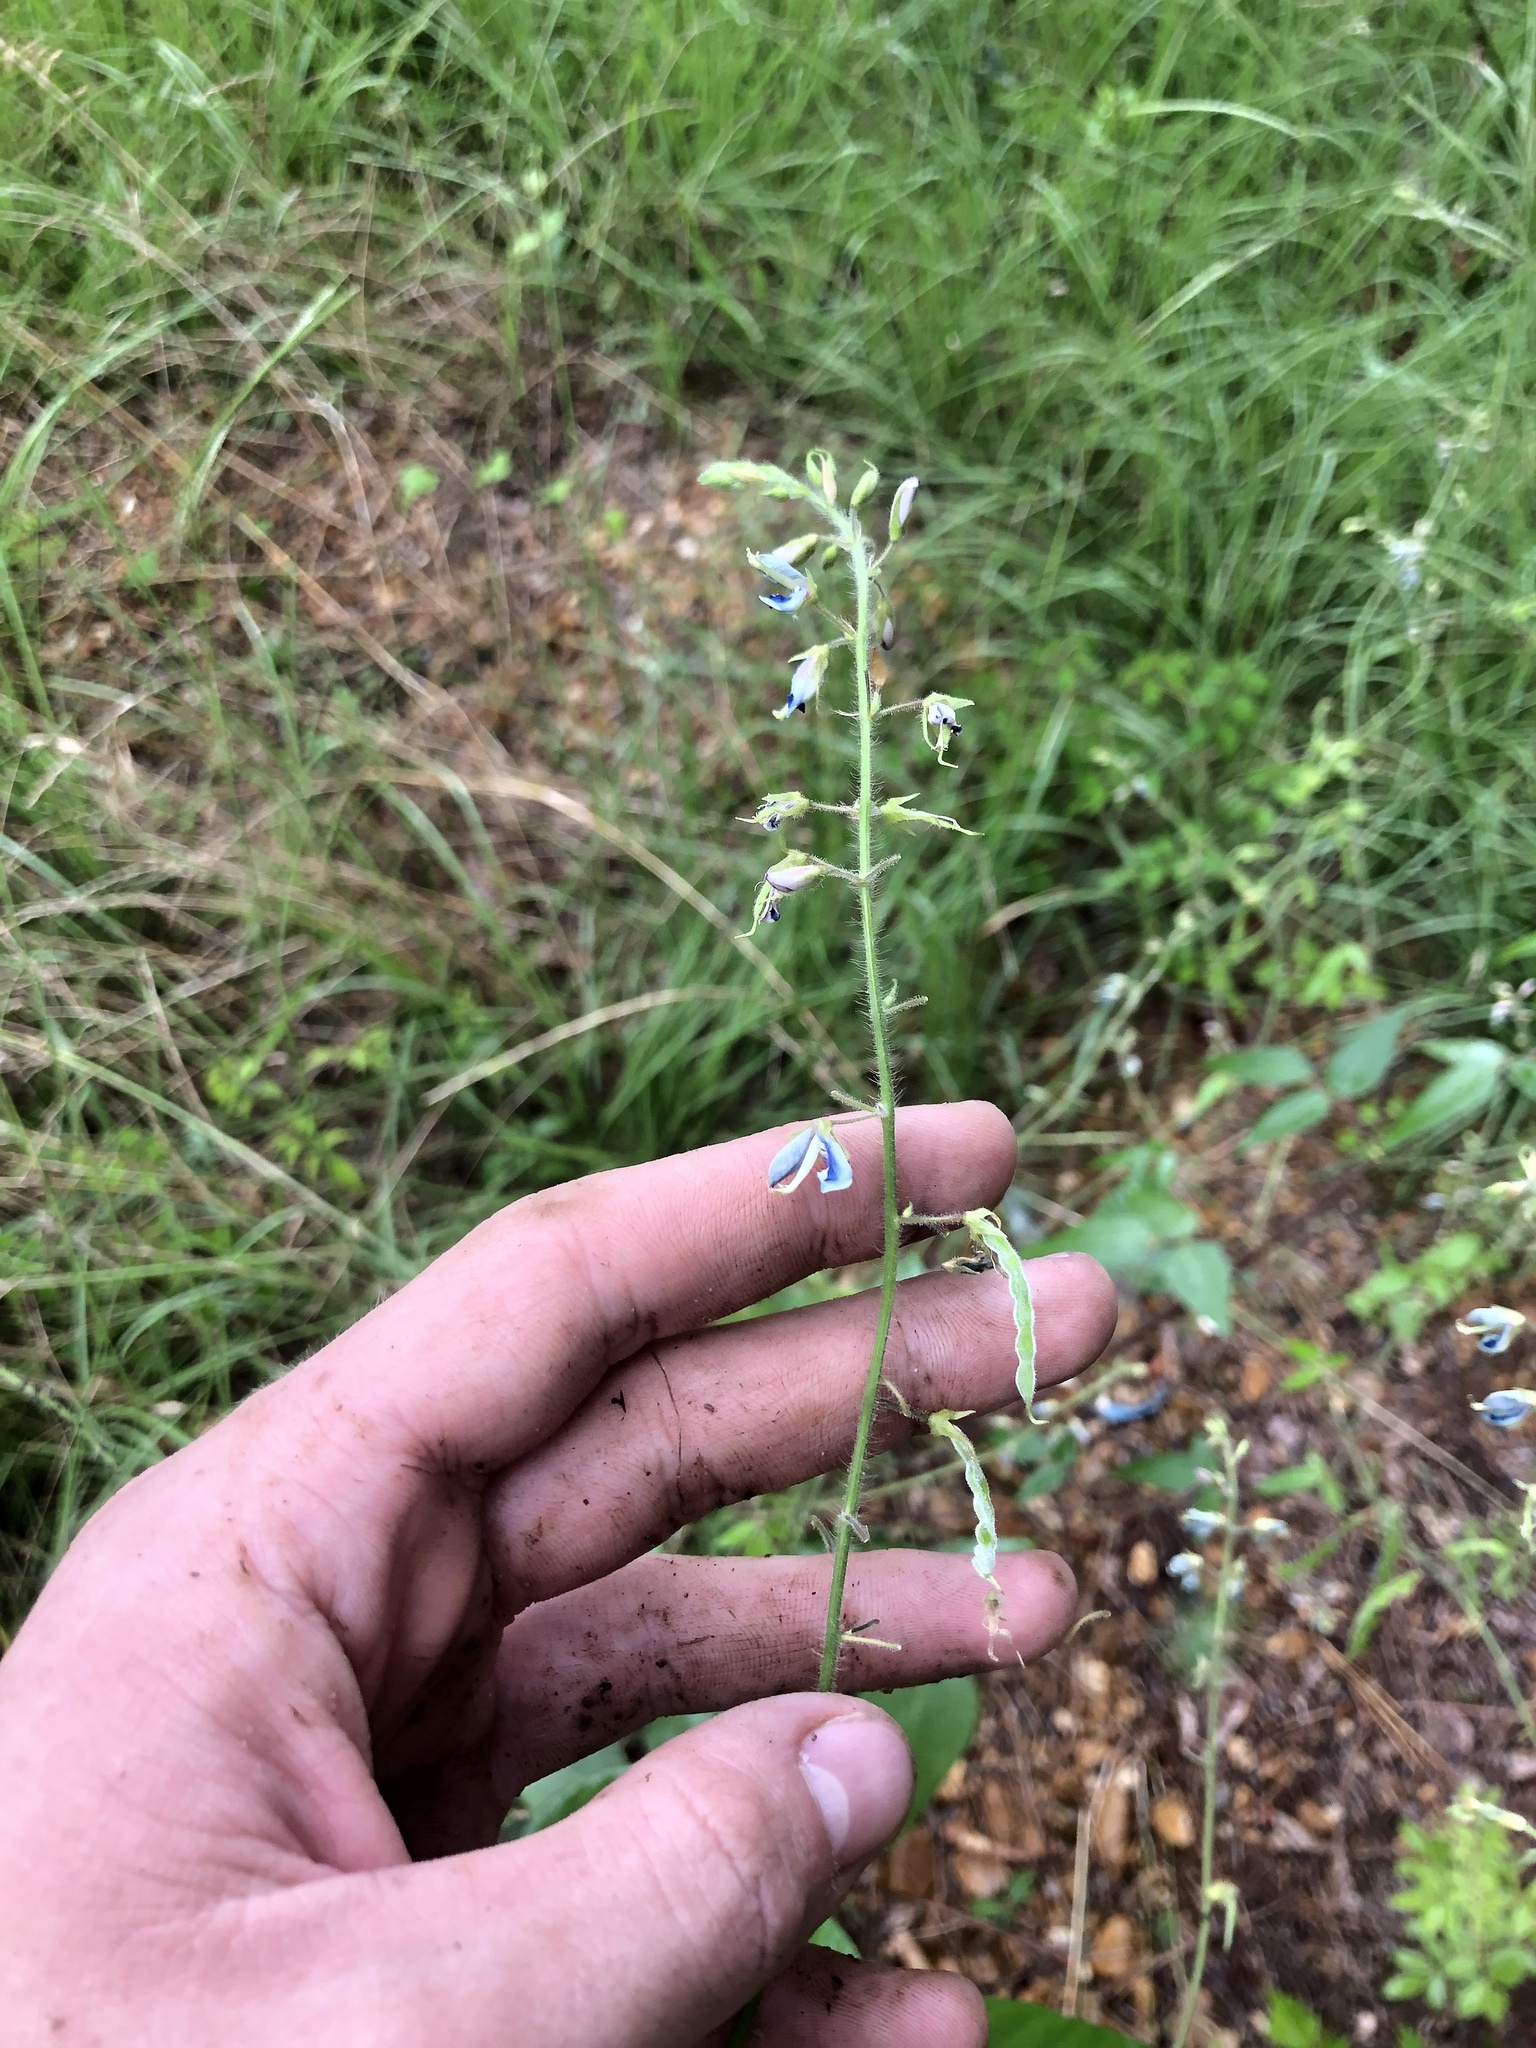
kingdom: Plantae
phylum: Tracheophyta
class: Magnoliopsida
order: Fabales
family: Fabaceae
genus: Desmodium
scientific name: Desmodium canescens
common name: Hoary tick-clover
